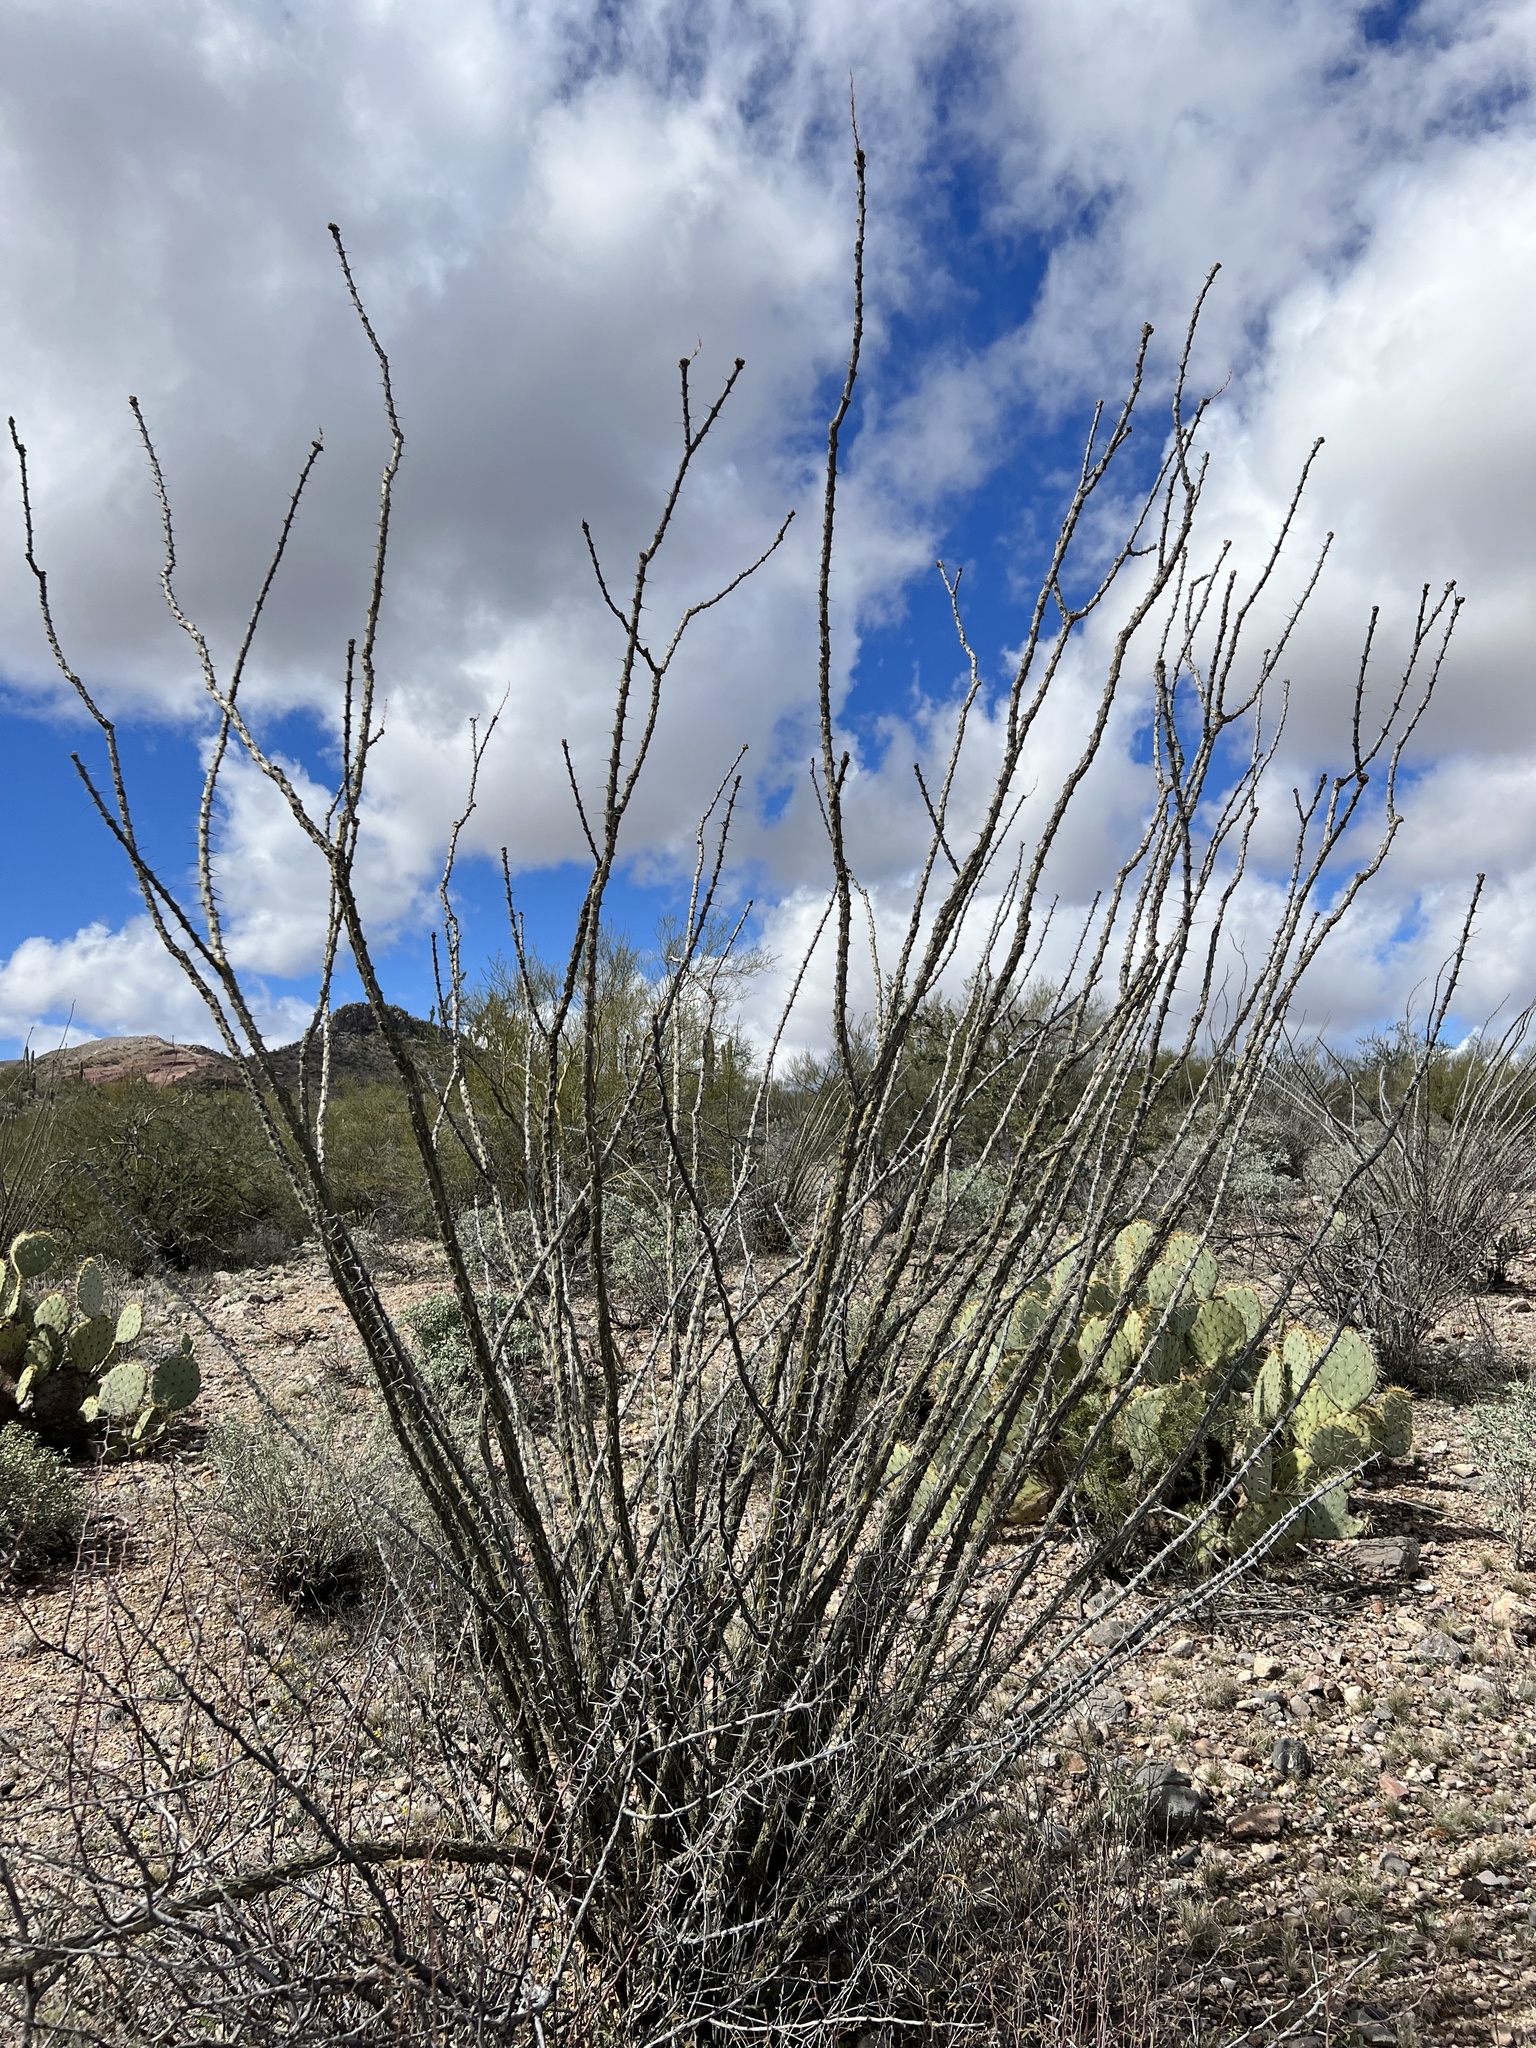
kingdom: Plantae
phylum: Tracheophyta
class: Magnoliopsida
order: Ericales
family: Fouquieriaceae
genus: Fouquieria
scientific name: Fouquieria splendens
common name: Vine-cactus
